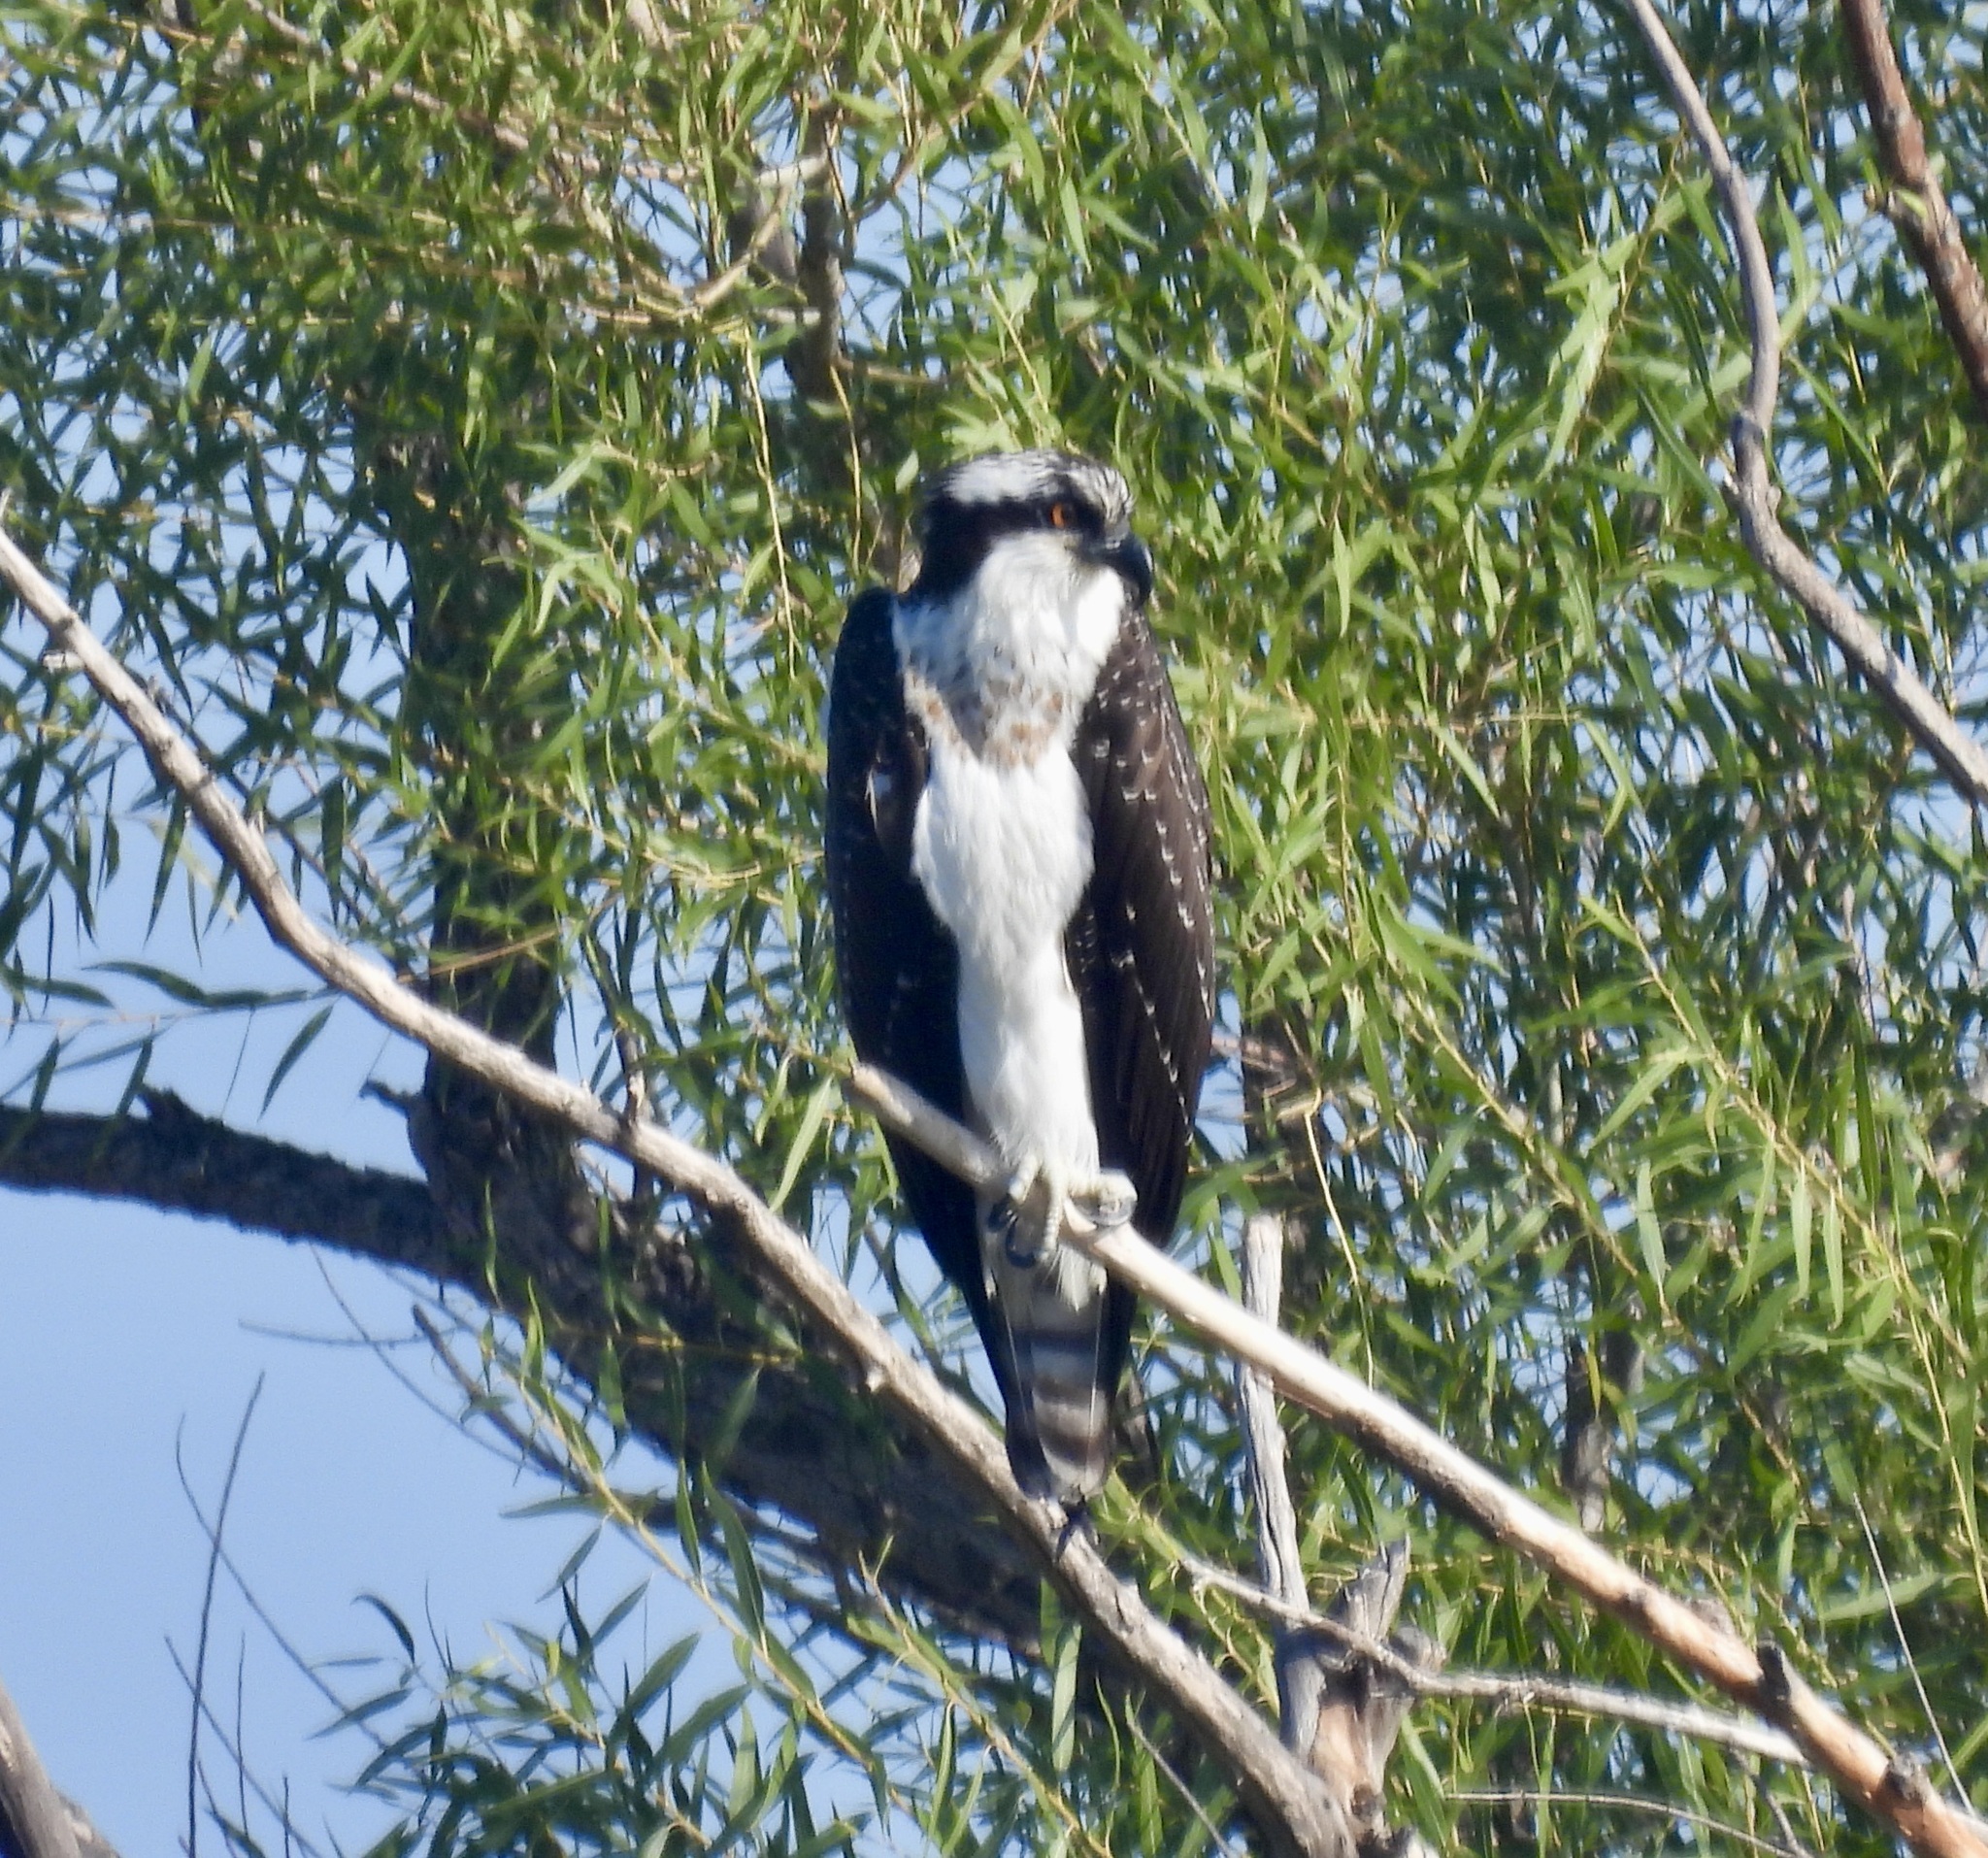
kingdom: Animalia
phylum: Chordata
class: Aves
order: Accipitriformes
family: Pandionidae
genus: Pandion
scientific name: Pandion haliaetus
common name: Osprey
